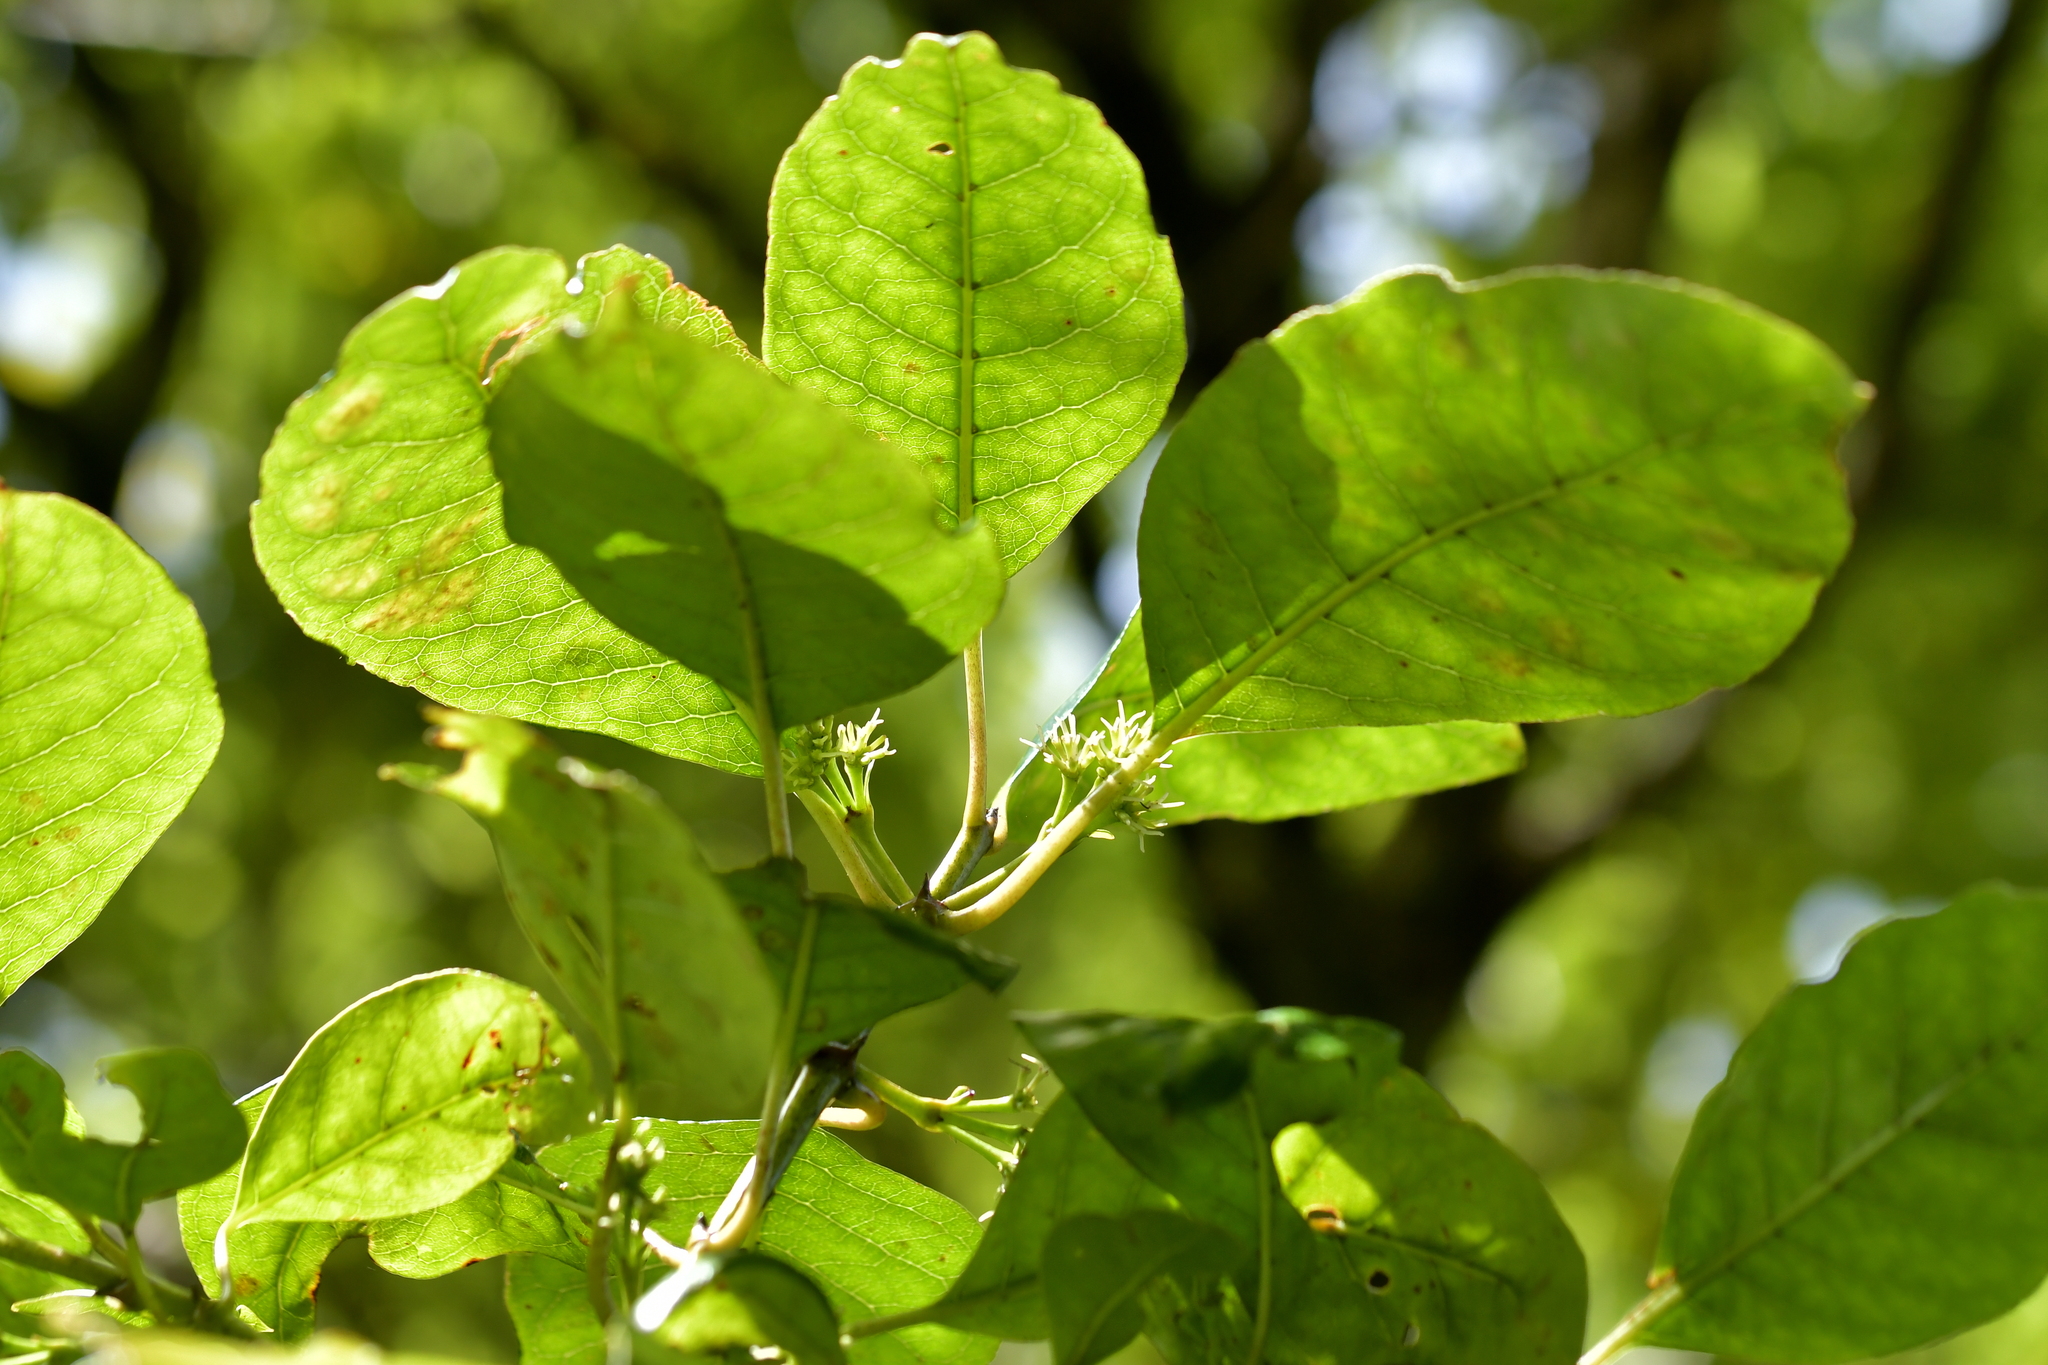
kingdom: Plantae
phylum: Tracheophyta
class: Magnoliopsida
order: Gentianales
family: Rubiaceae
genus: Coprosma
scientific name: Coprosma autumnalis
